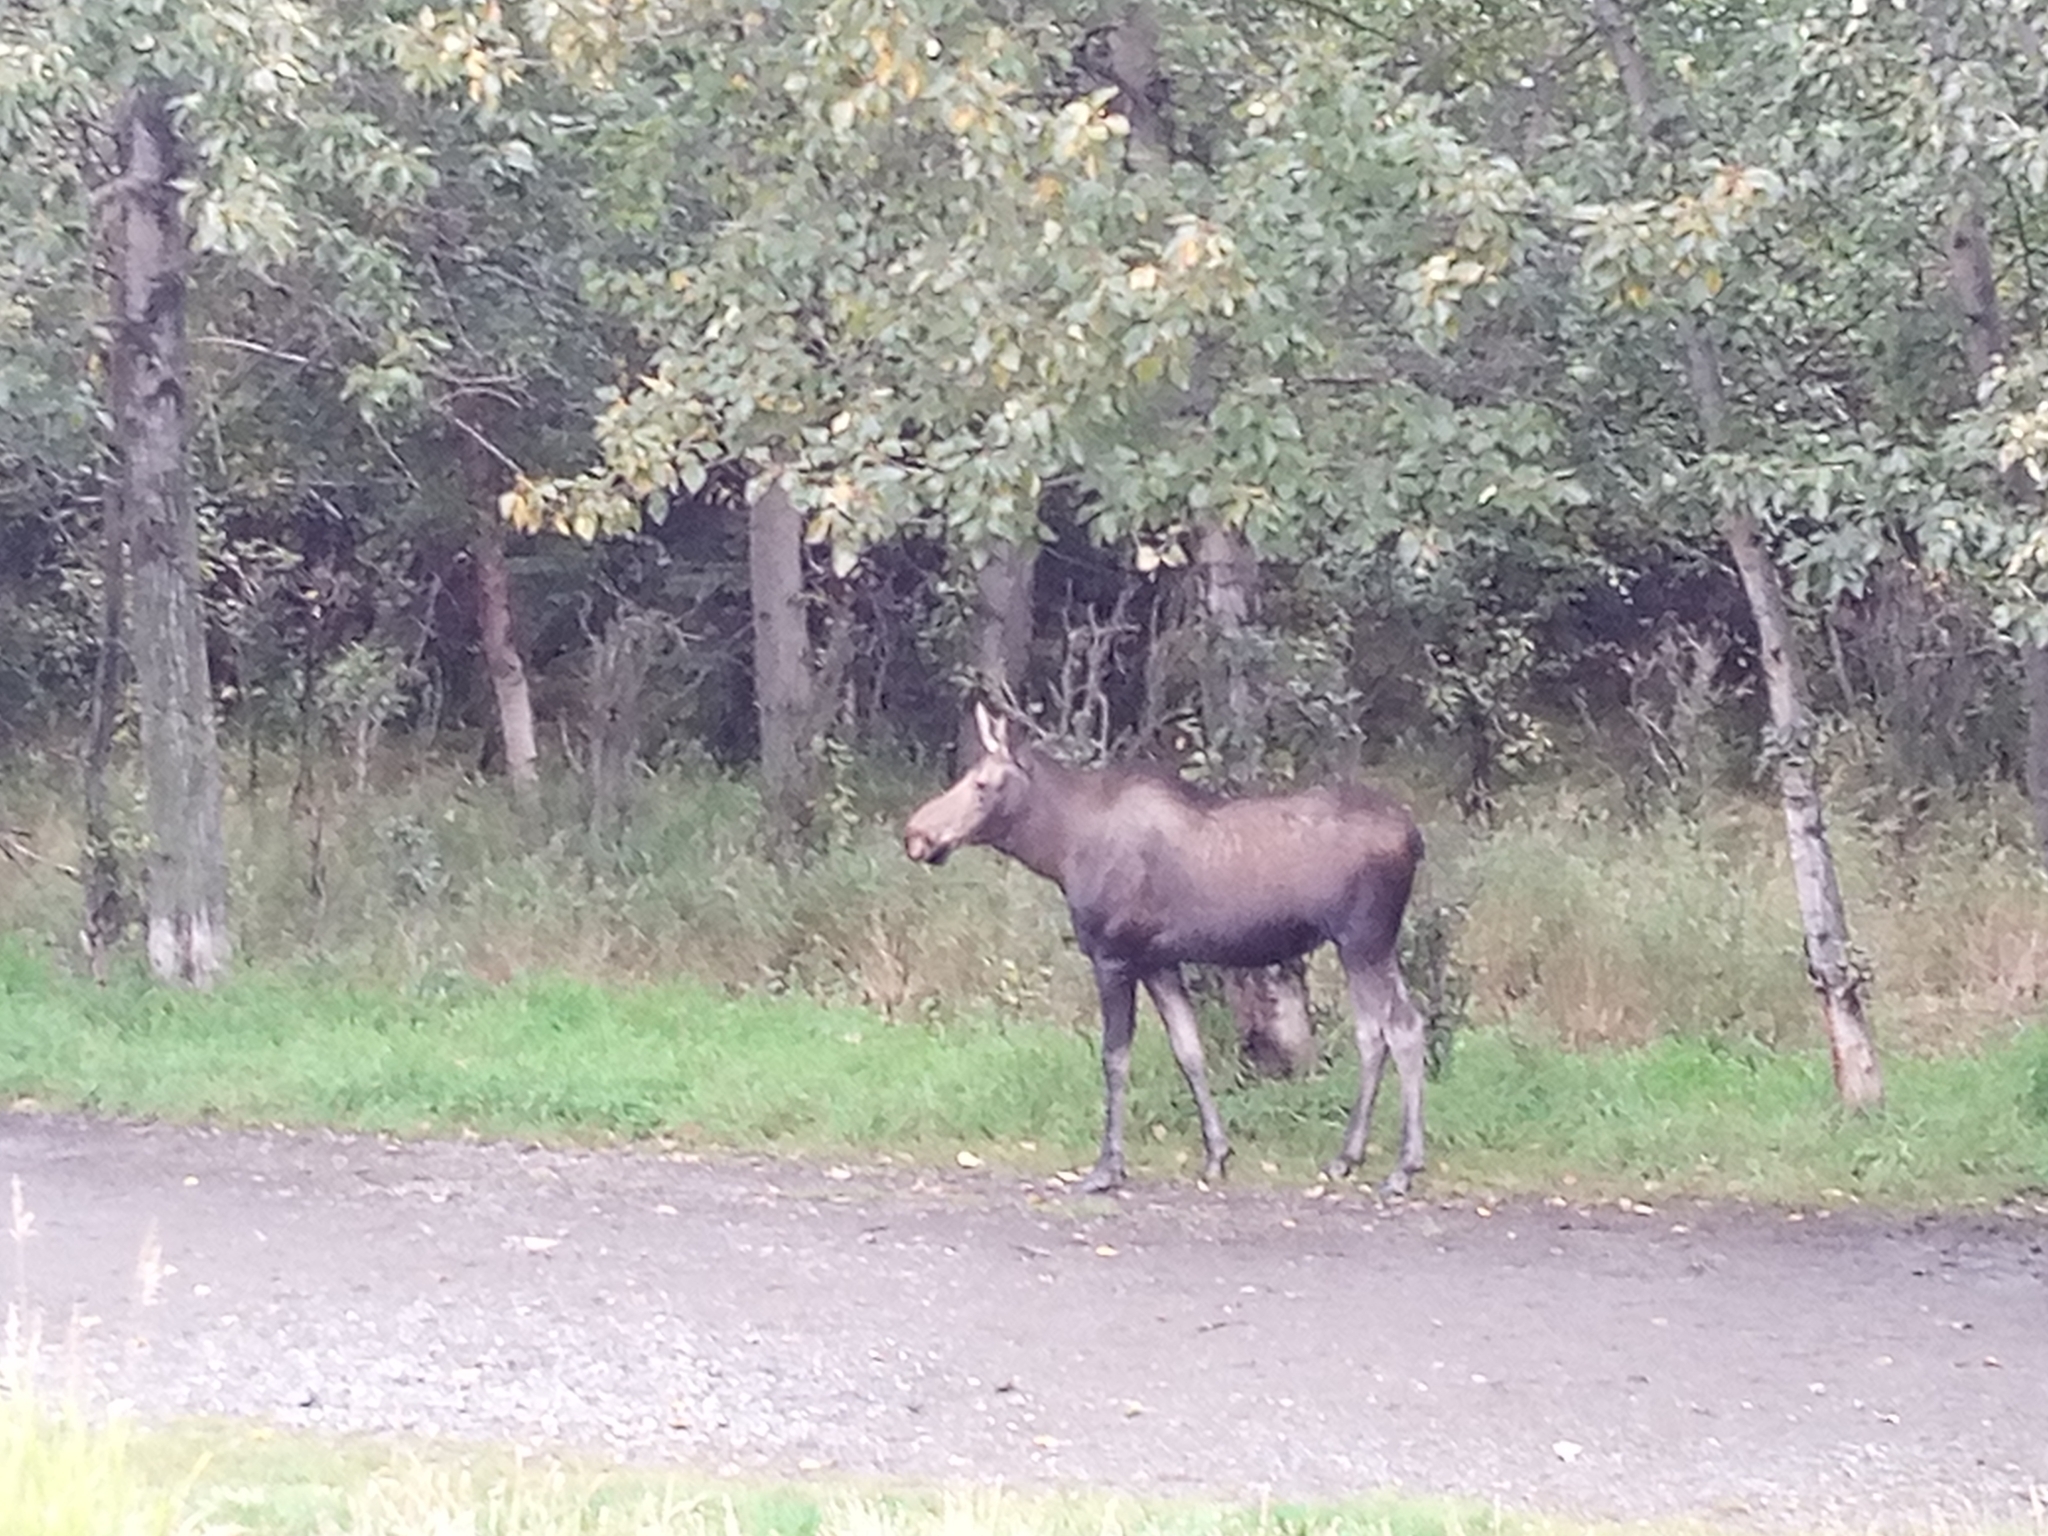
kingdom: Animalia
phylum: Chordata
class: Mammalia
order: Artiodactyla
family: Cervidae
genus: Alces
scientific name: Alces alces
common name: Moose
